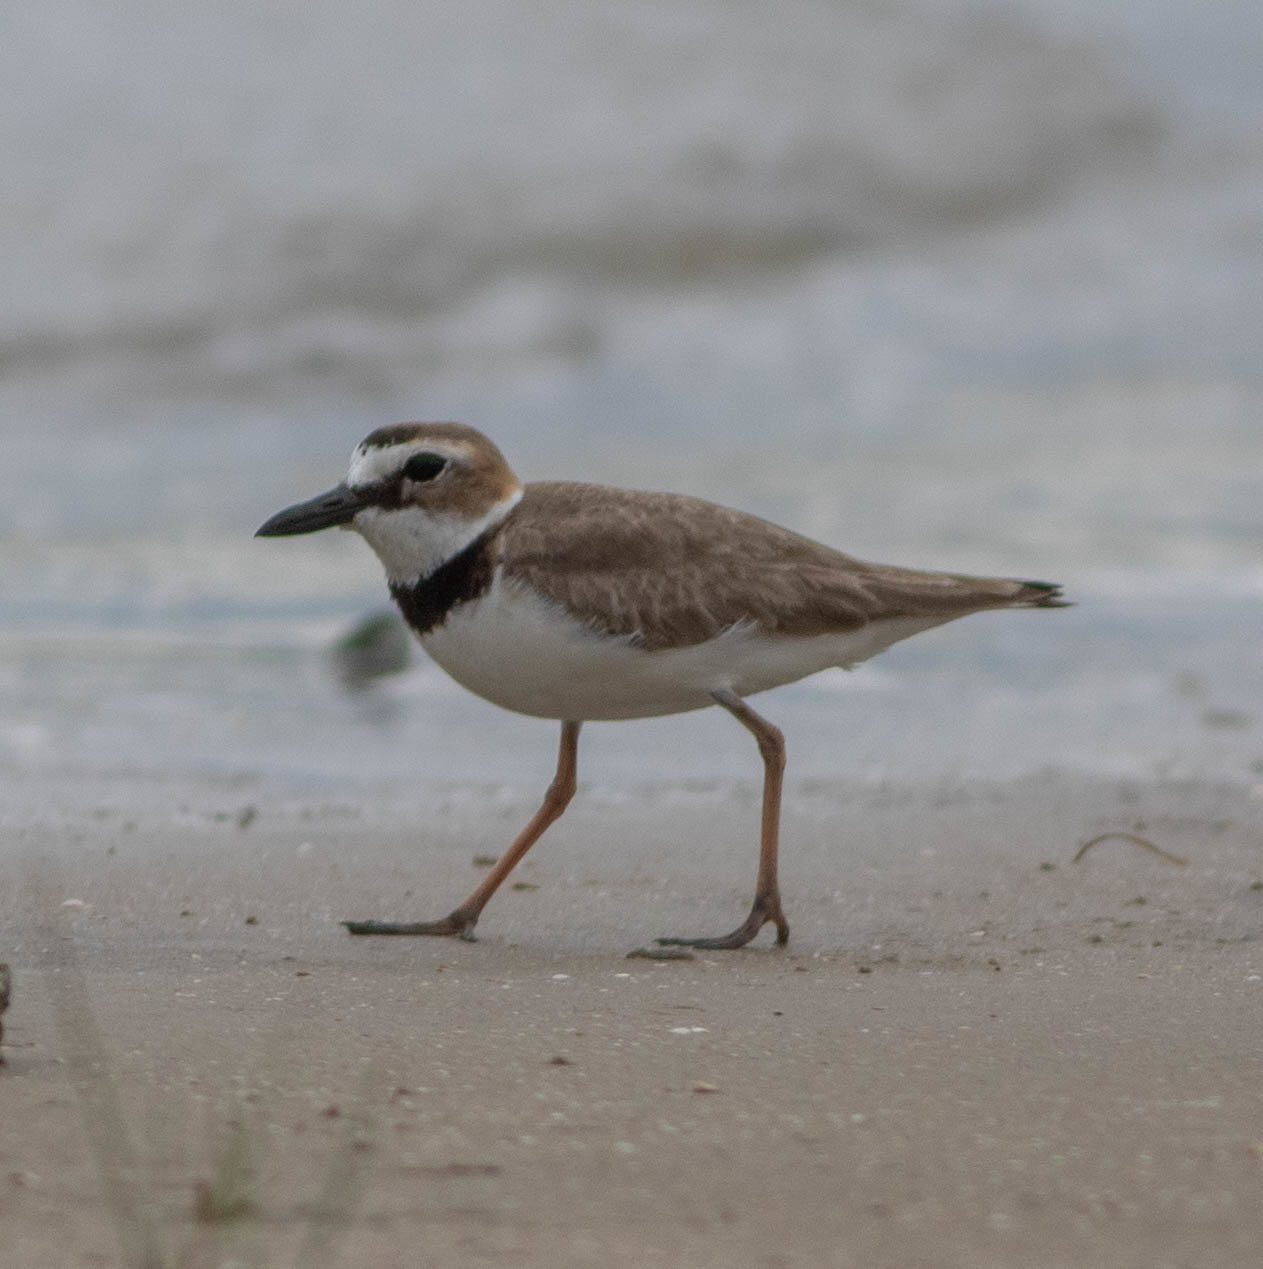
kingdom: Animalia
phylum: Chordata
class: Aves
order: Charadriiformes
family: Charadriidae
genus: Anarhynchus
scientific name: Anarhynchus
